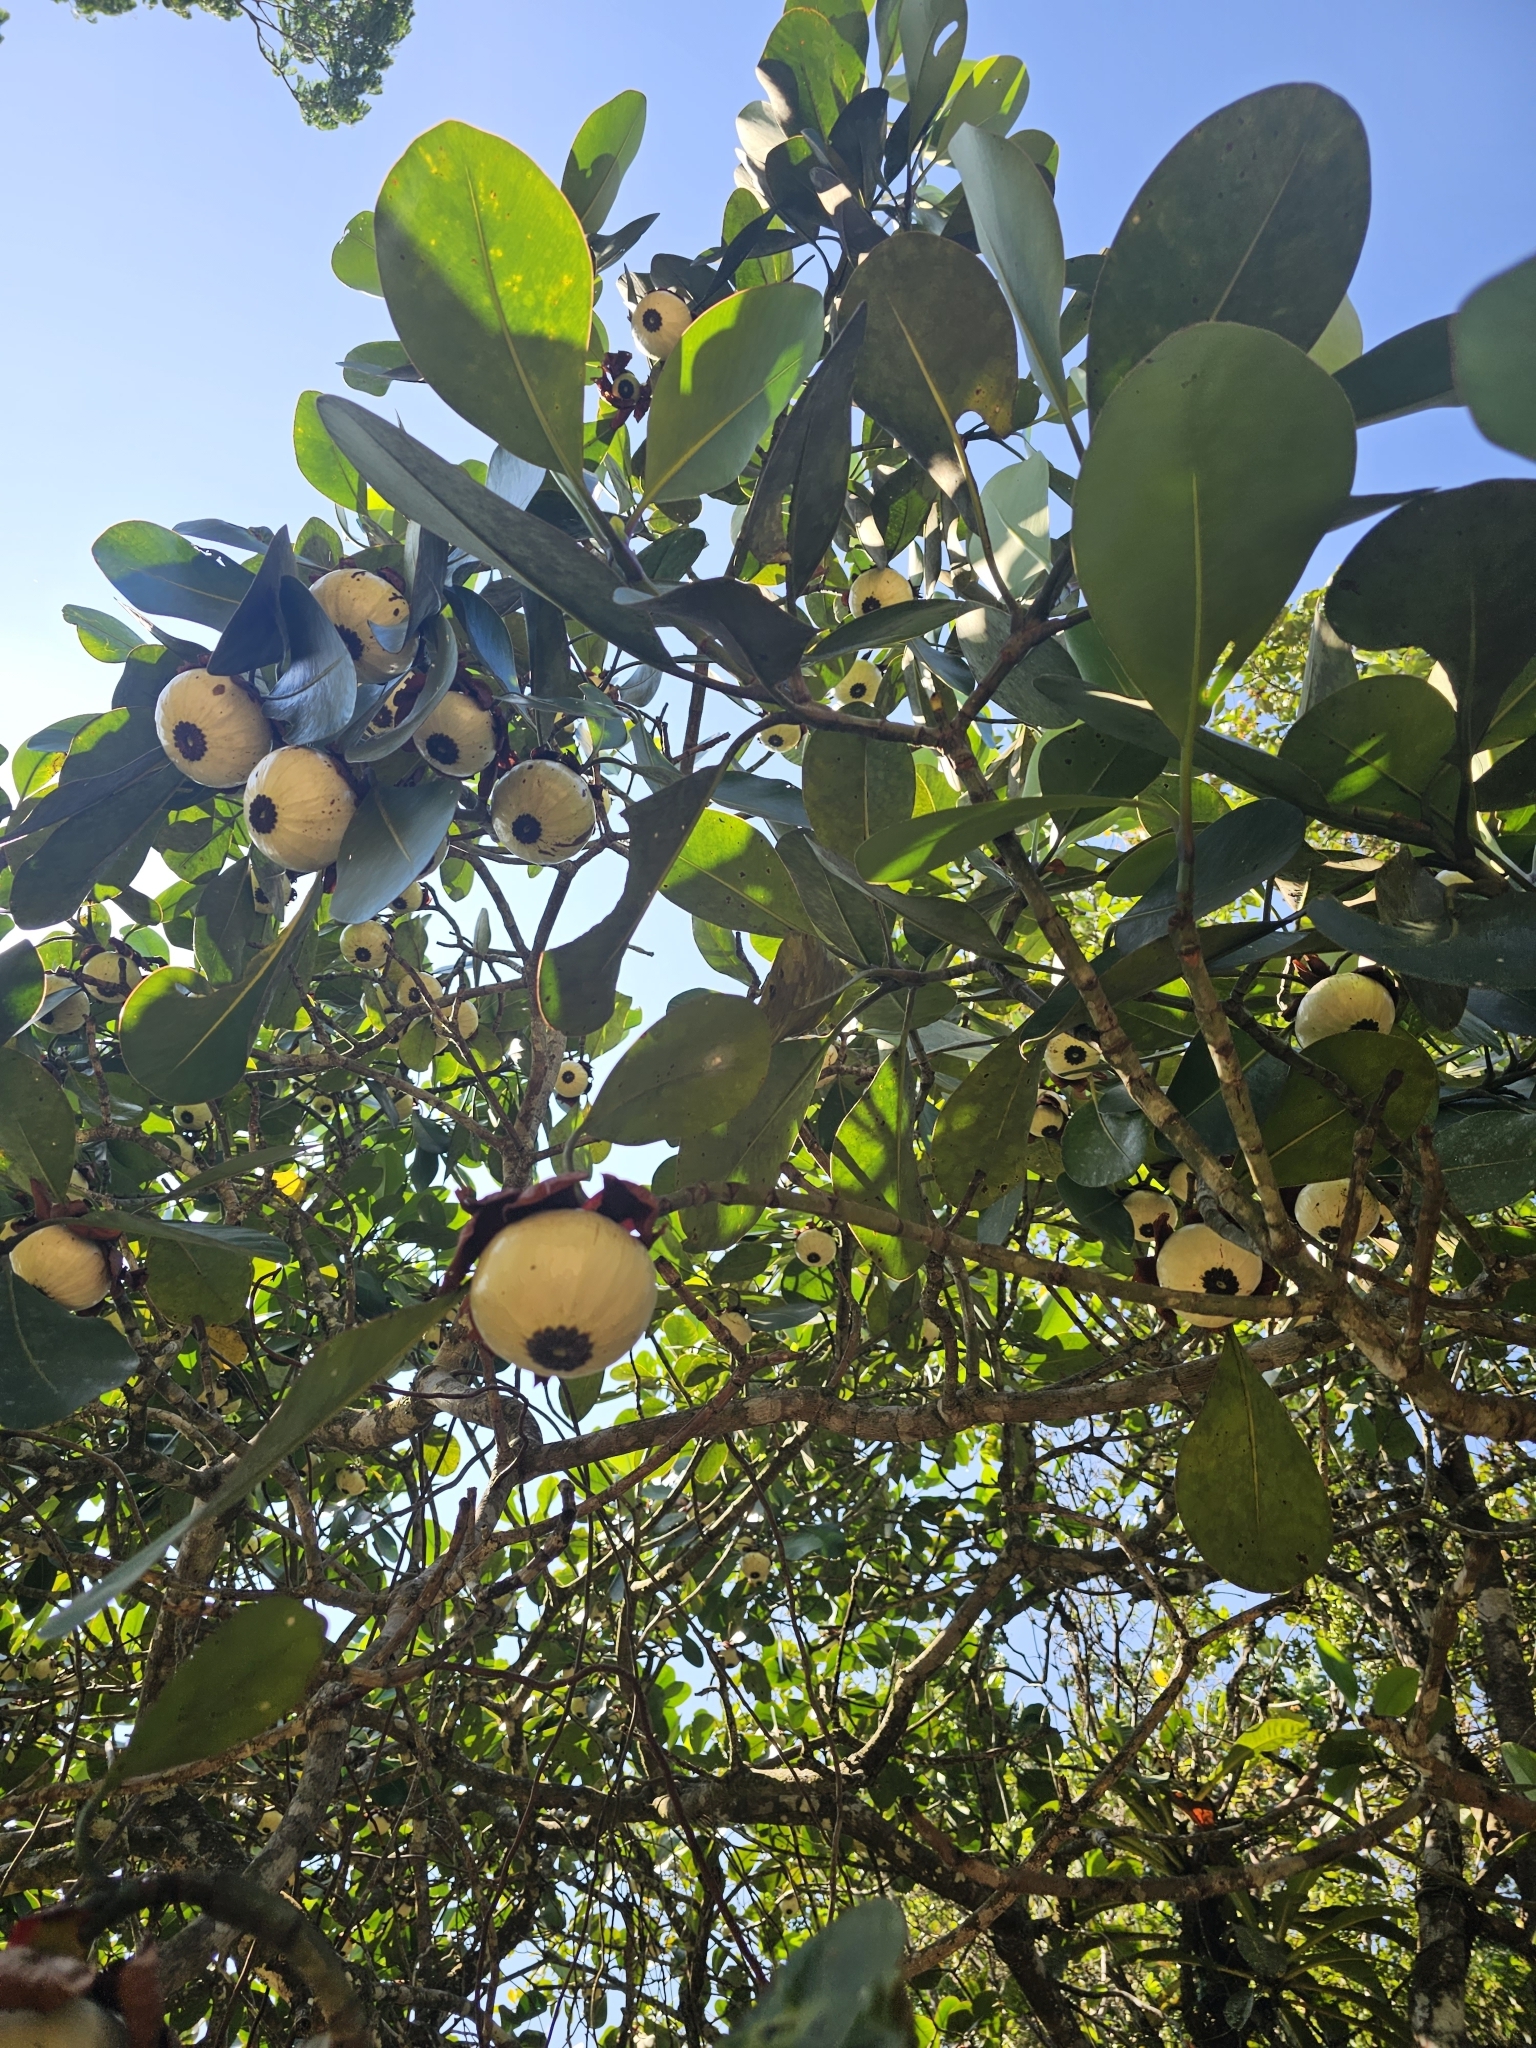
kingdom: Plantae
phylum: Tracheophyta
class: Magnoliopsida
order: Malpighiales
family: Clusiaceae
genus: Clusia
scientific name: Clusia grandiflora
